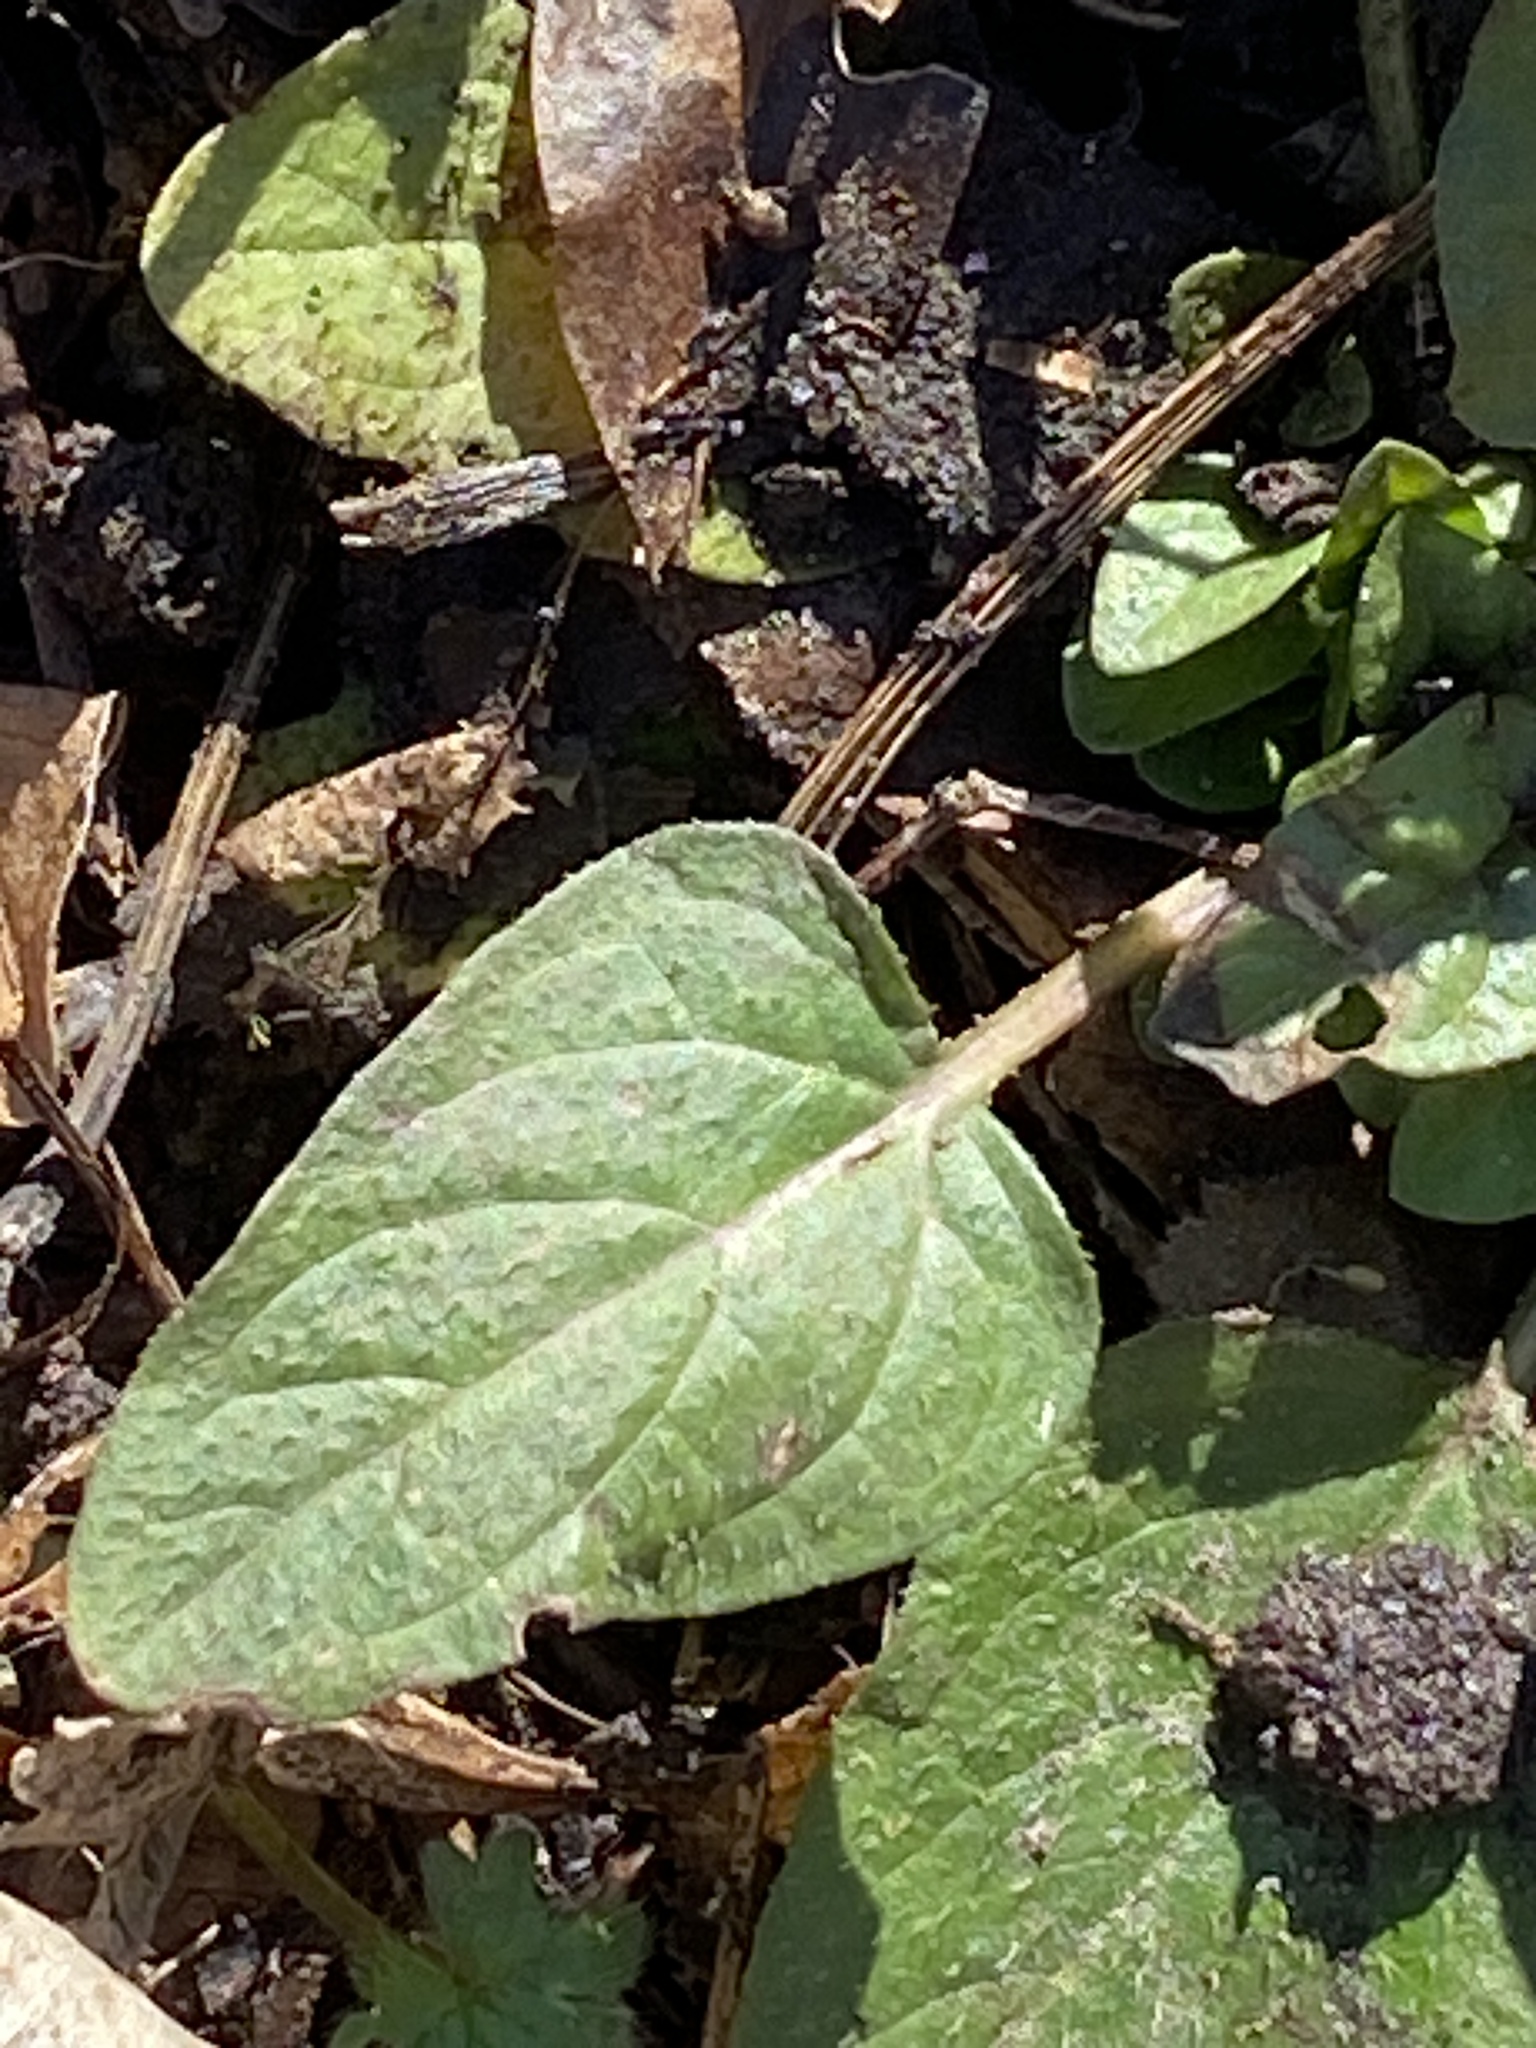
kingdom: Plantae
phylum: Tracheophyta
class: Magnoliopsida
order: Lamiales
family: Lamiaceae
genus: Prunella
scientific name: Prunella vulgaris
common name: Heal-all
